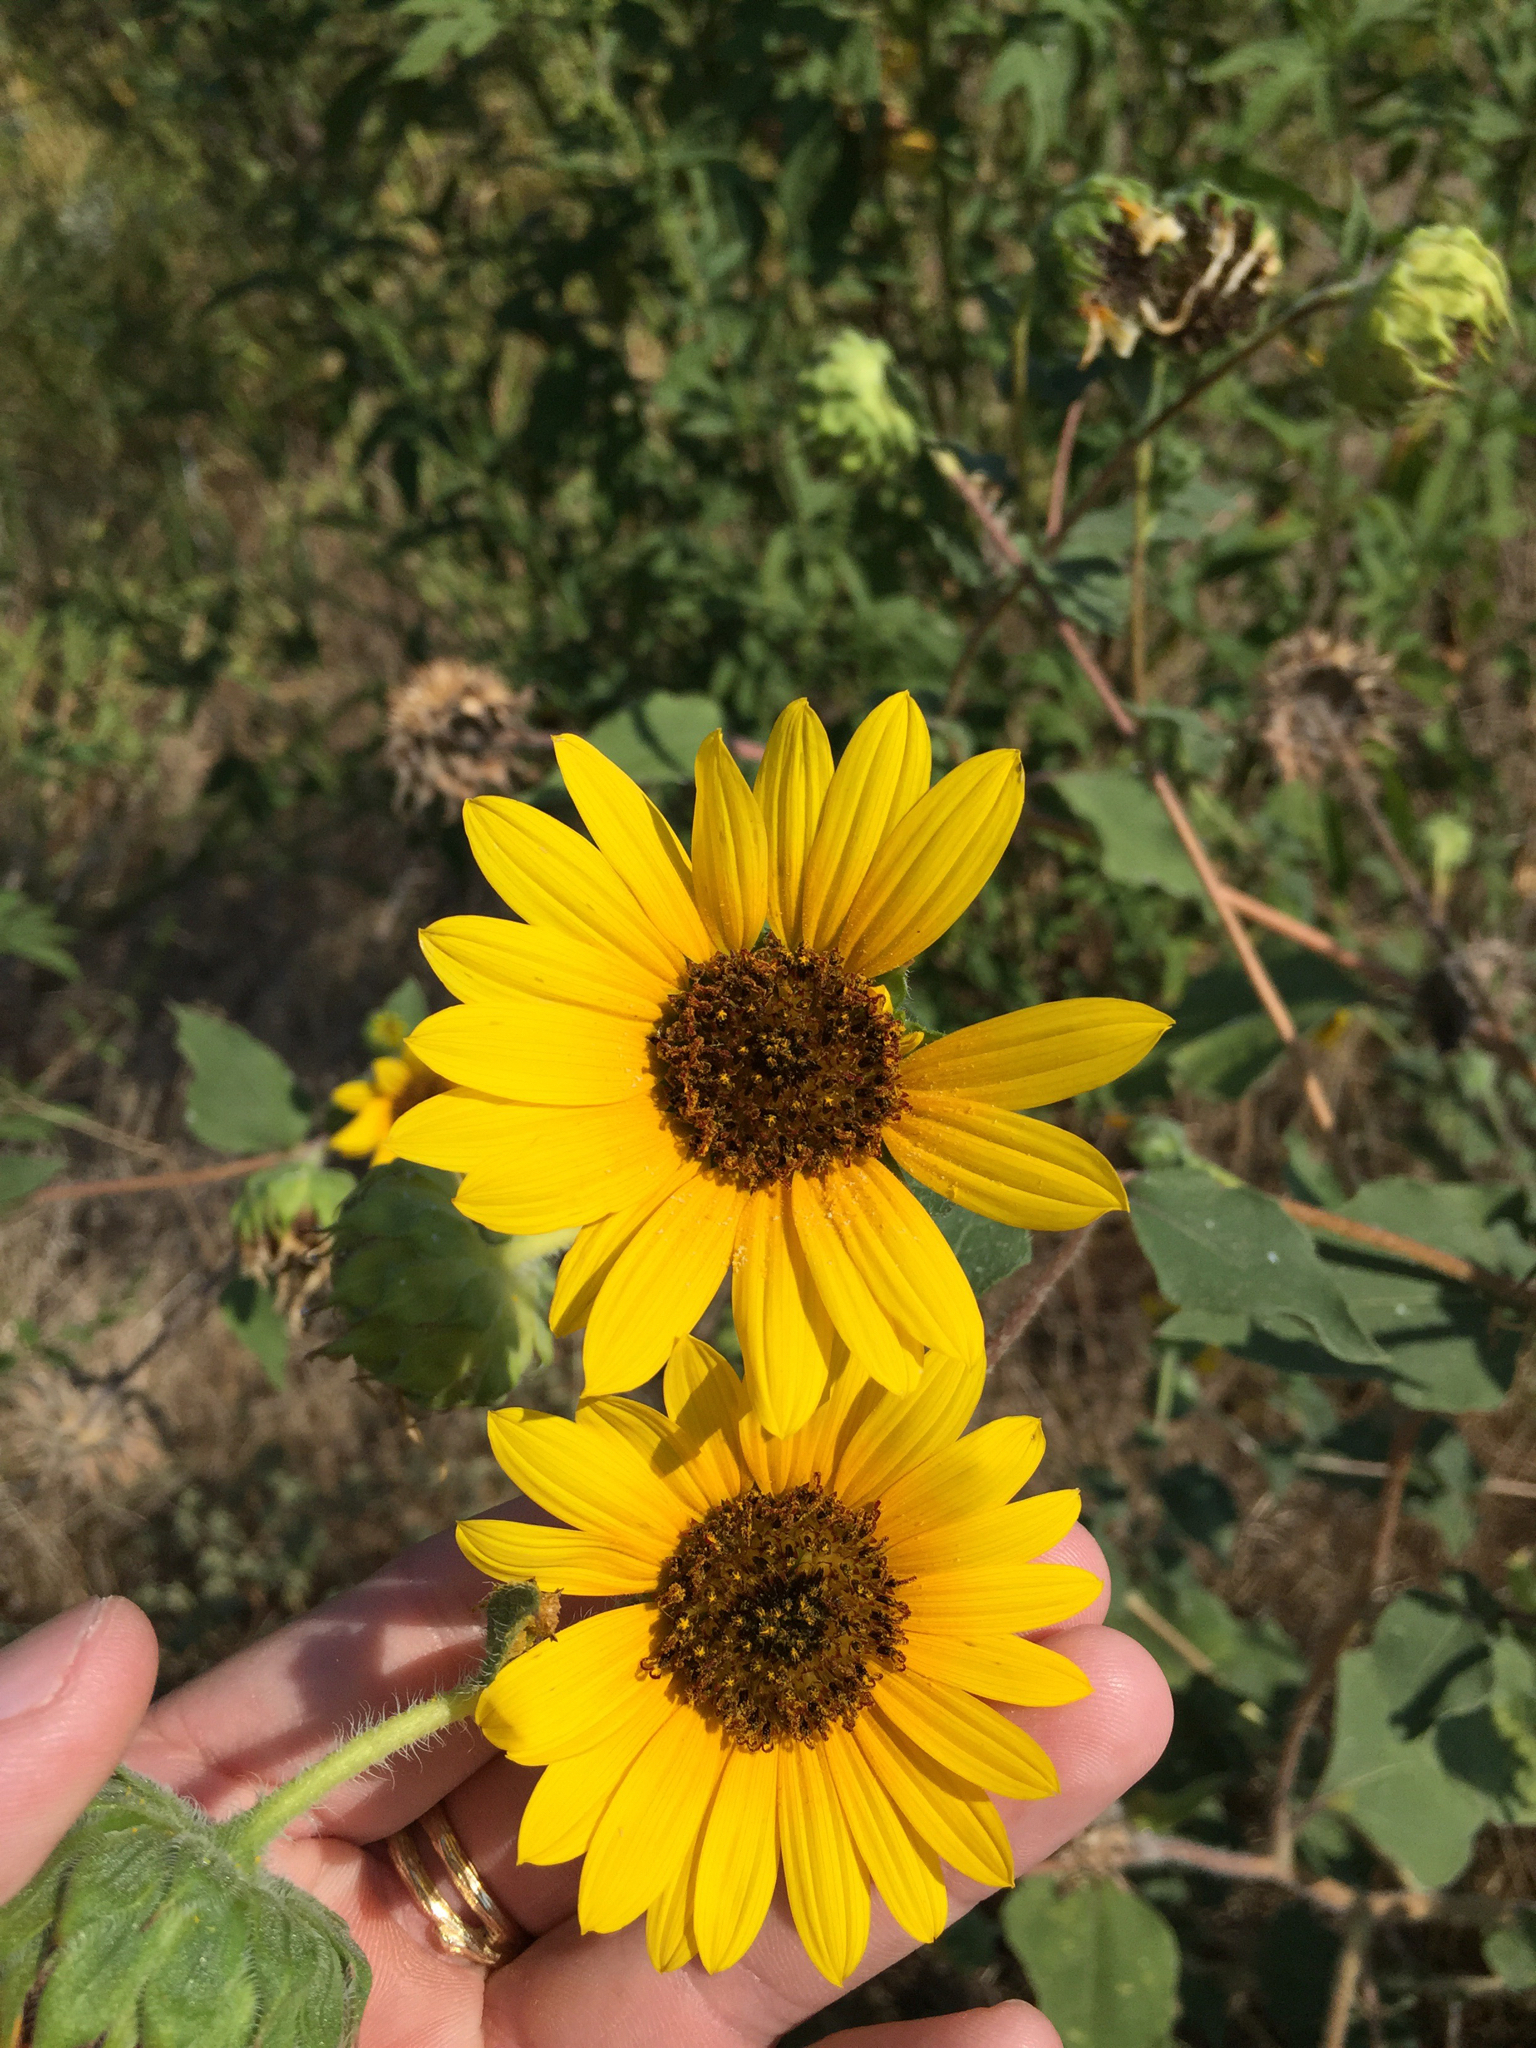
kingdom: Plantae
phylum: Tracheophyta
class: Magnoliopsida
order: Asterales
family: Asteraceae
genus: Helianthus
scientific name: Helianthus annuus
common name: Sunflower
